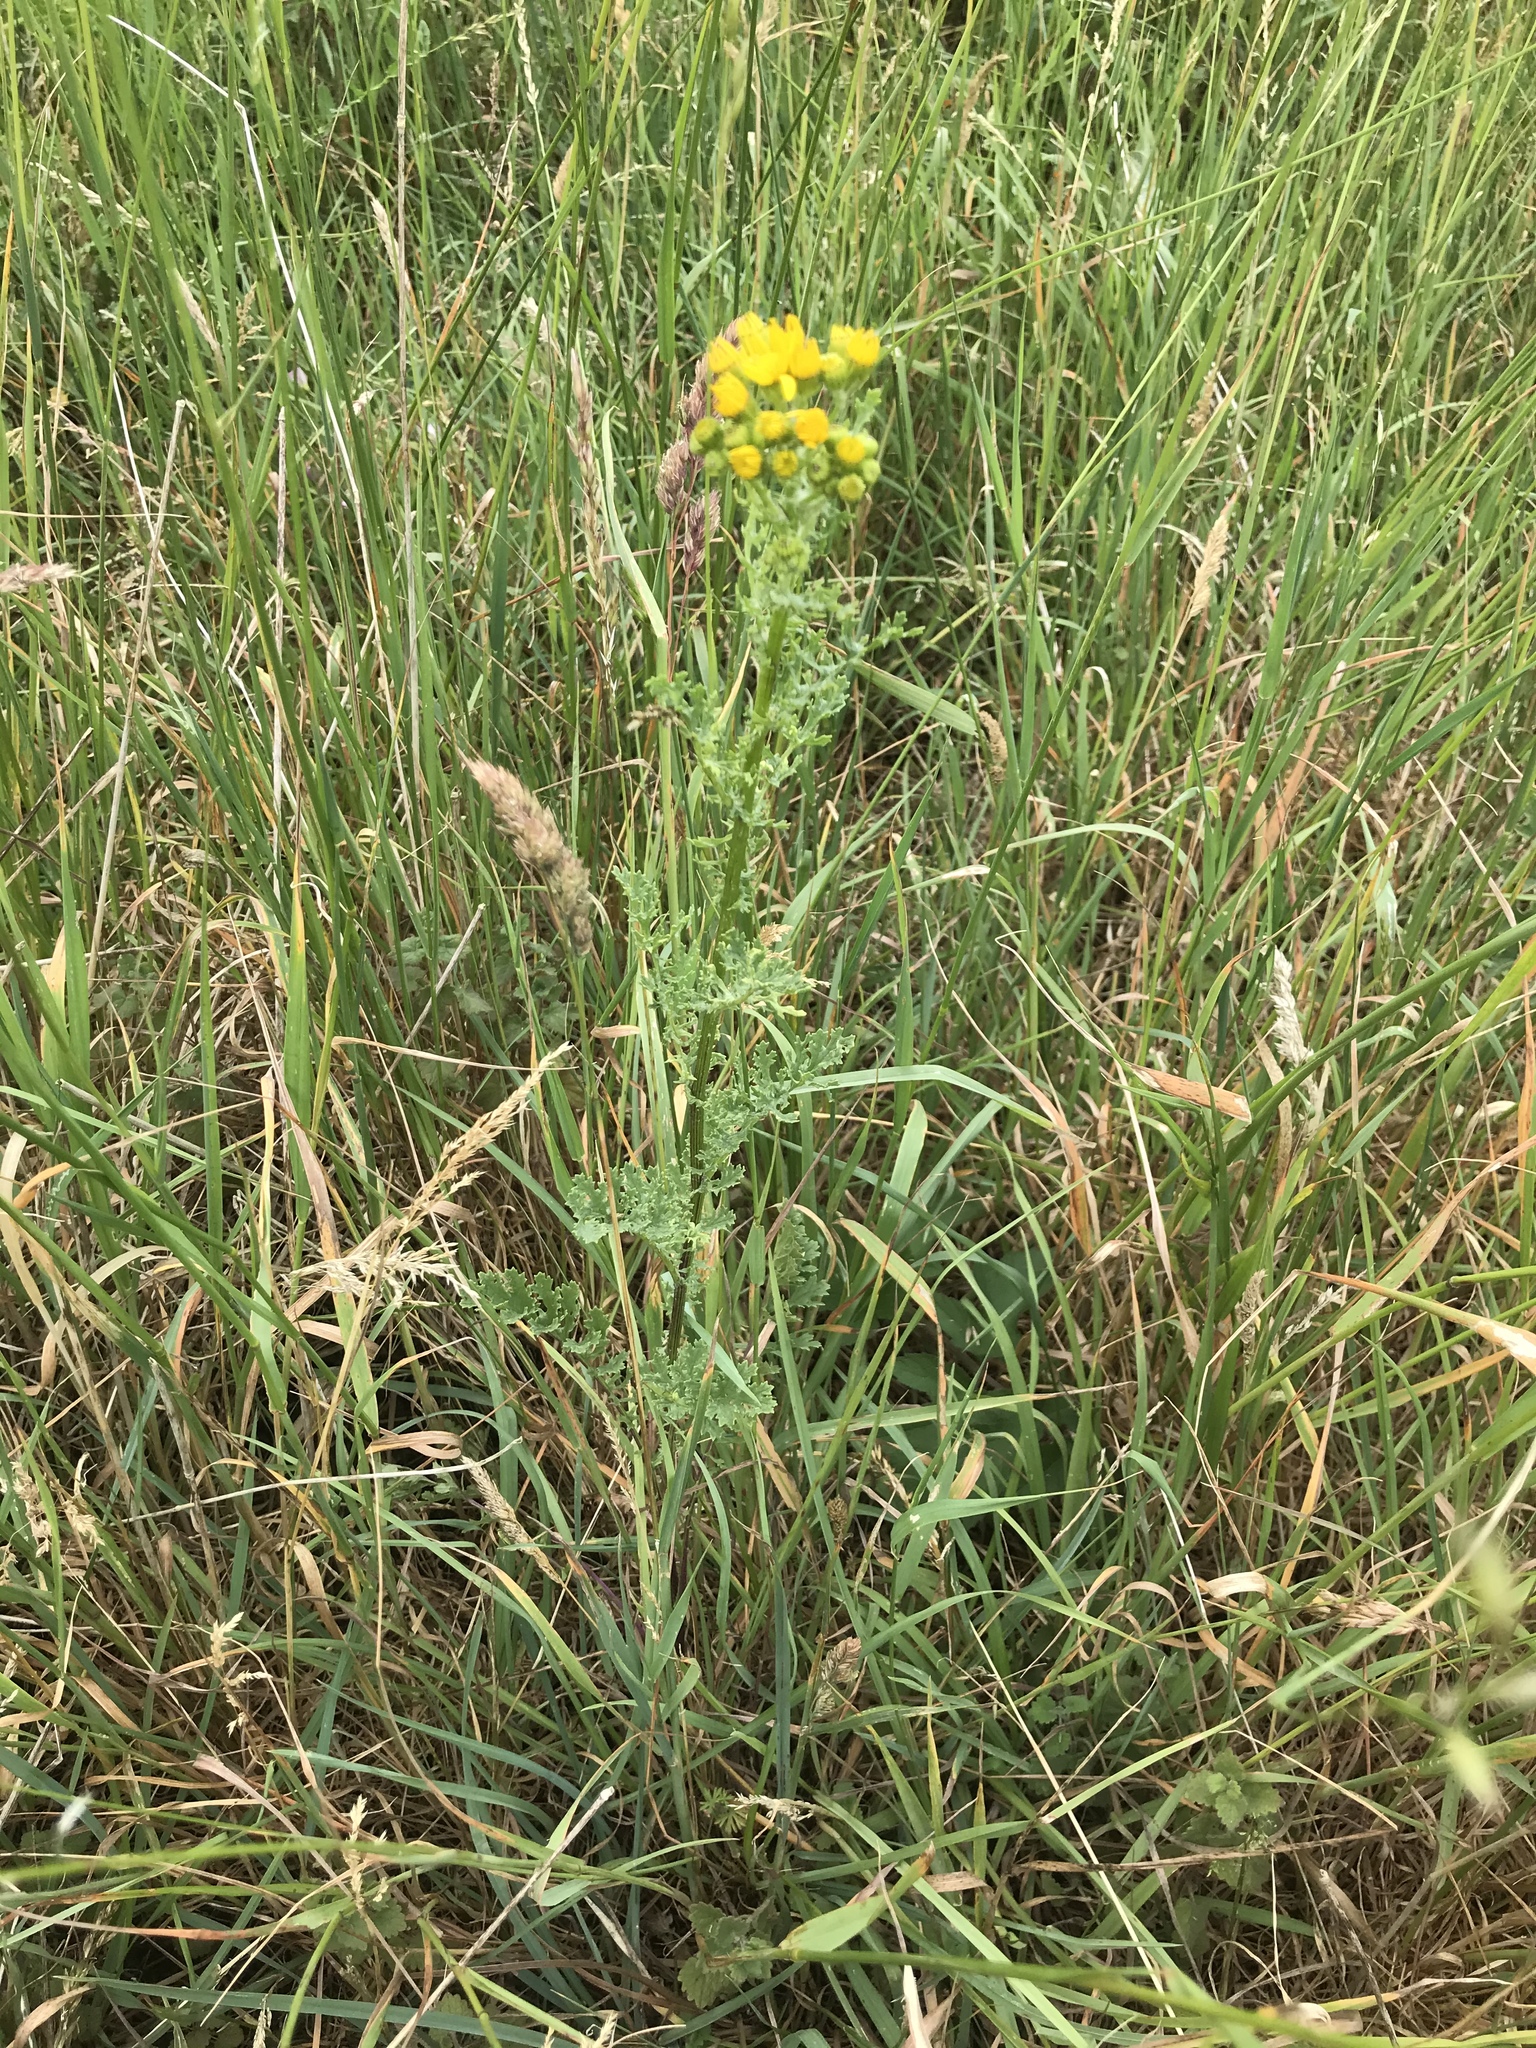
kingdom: Plantae
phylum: Tracheophyta
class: Magnoliopsida
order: Asterales
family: Asteraceae
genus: Jacobaea
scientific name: Jacobaea vulgaris
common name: Stinking willie
